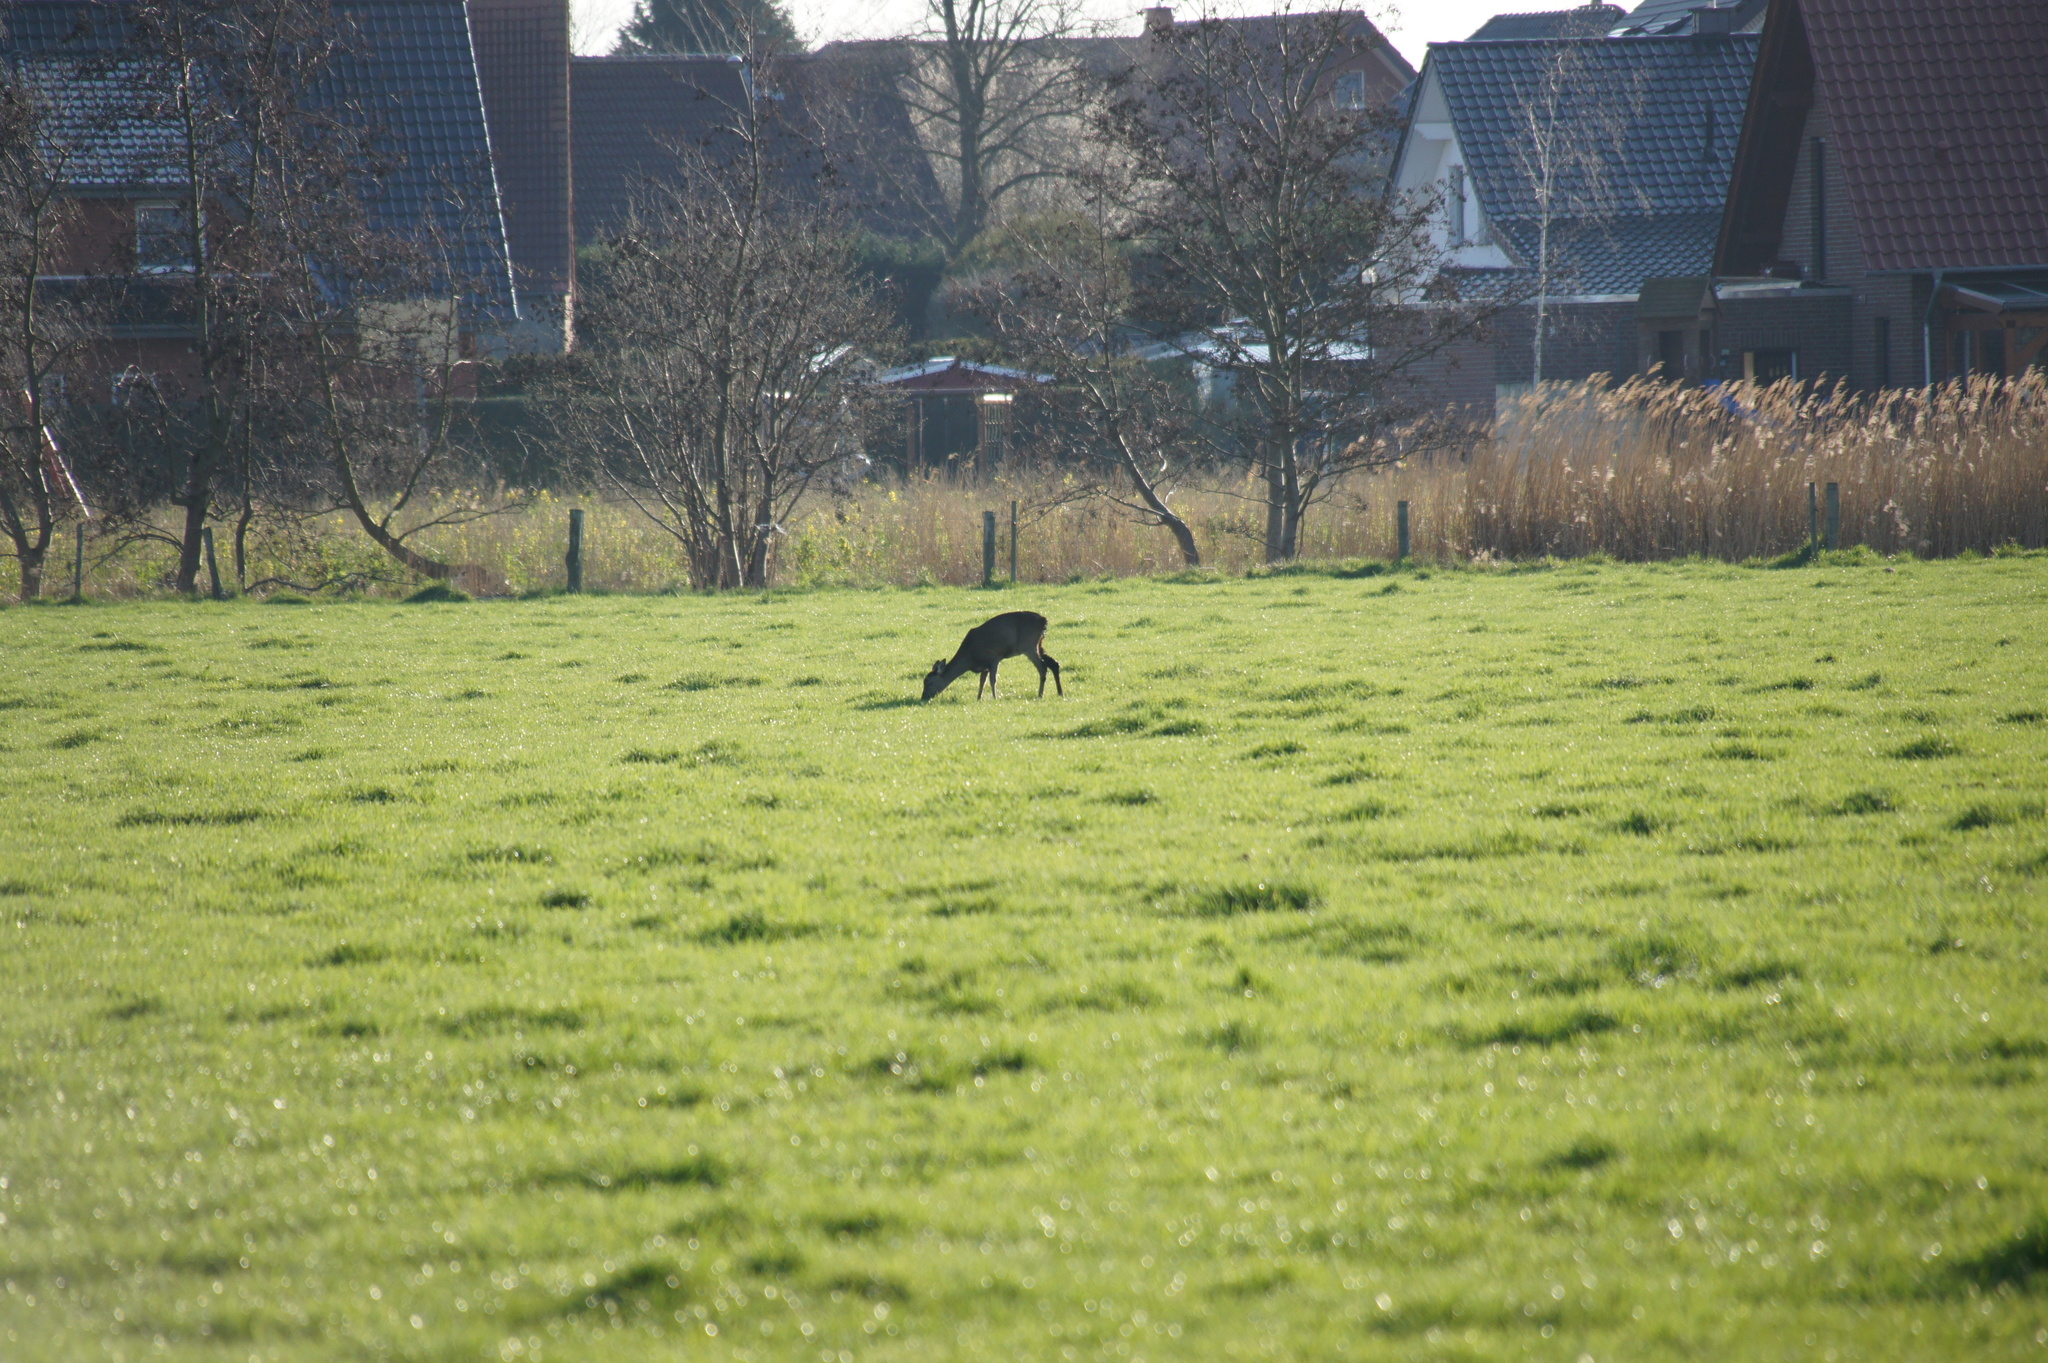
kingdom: Animalia
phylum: Chordata
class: Mammalia
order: Artiodactyla
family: Cervidae
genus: Capreolus
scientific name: Capreolus capreolus
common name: Western roe deer
